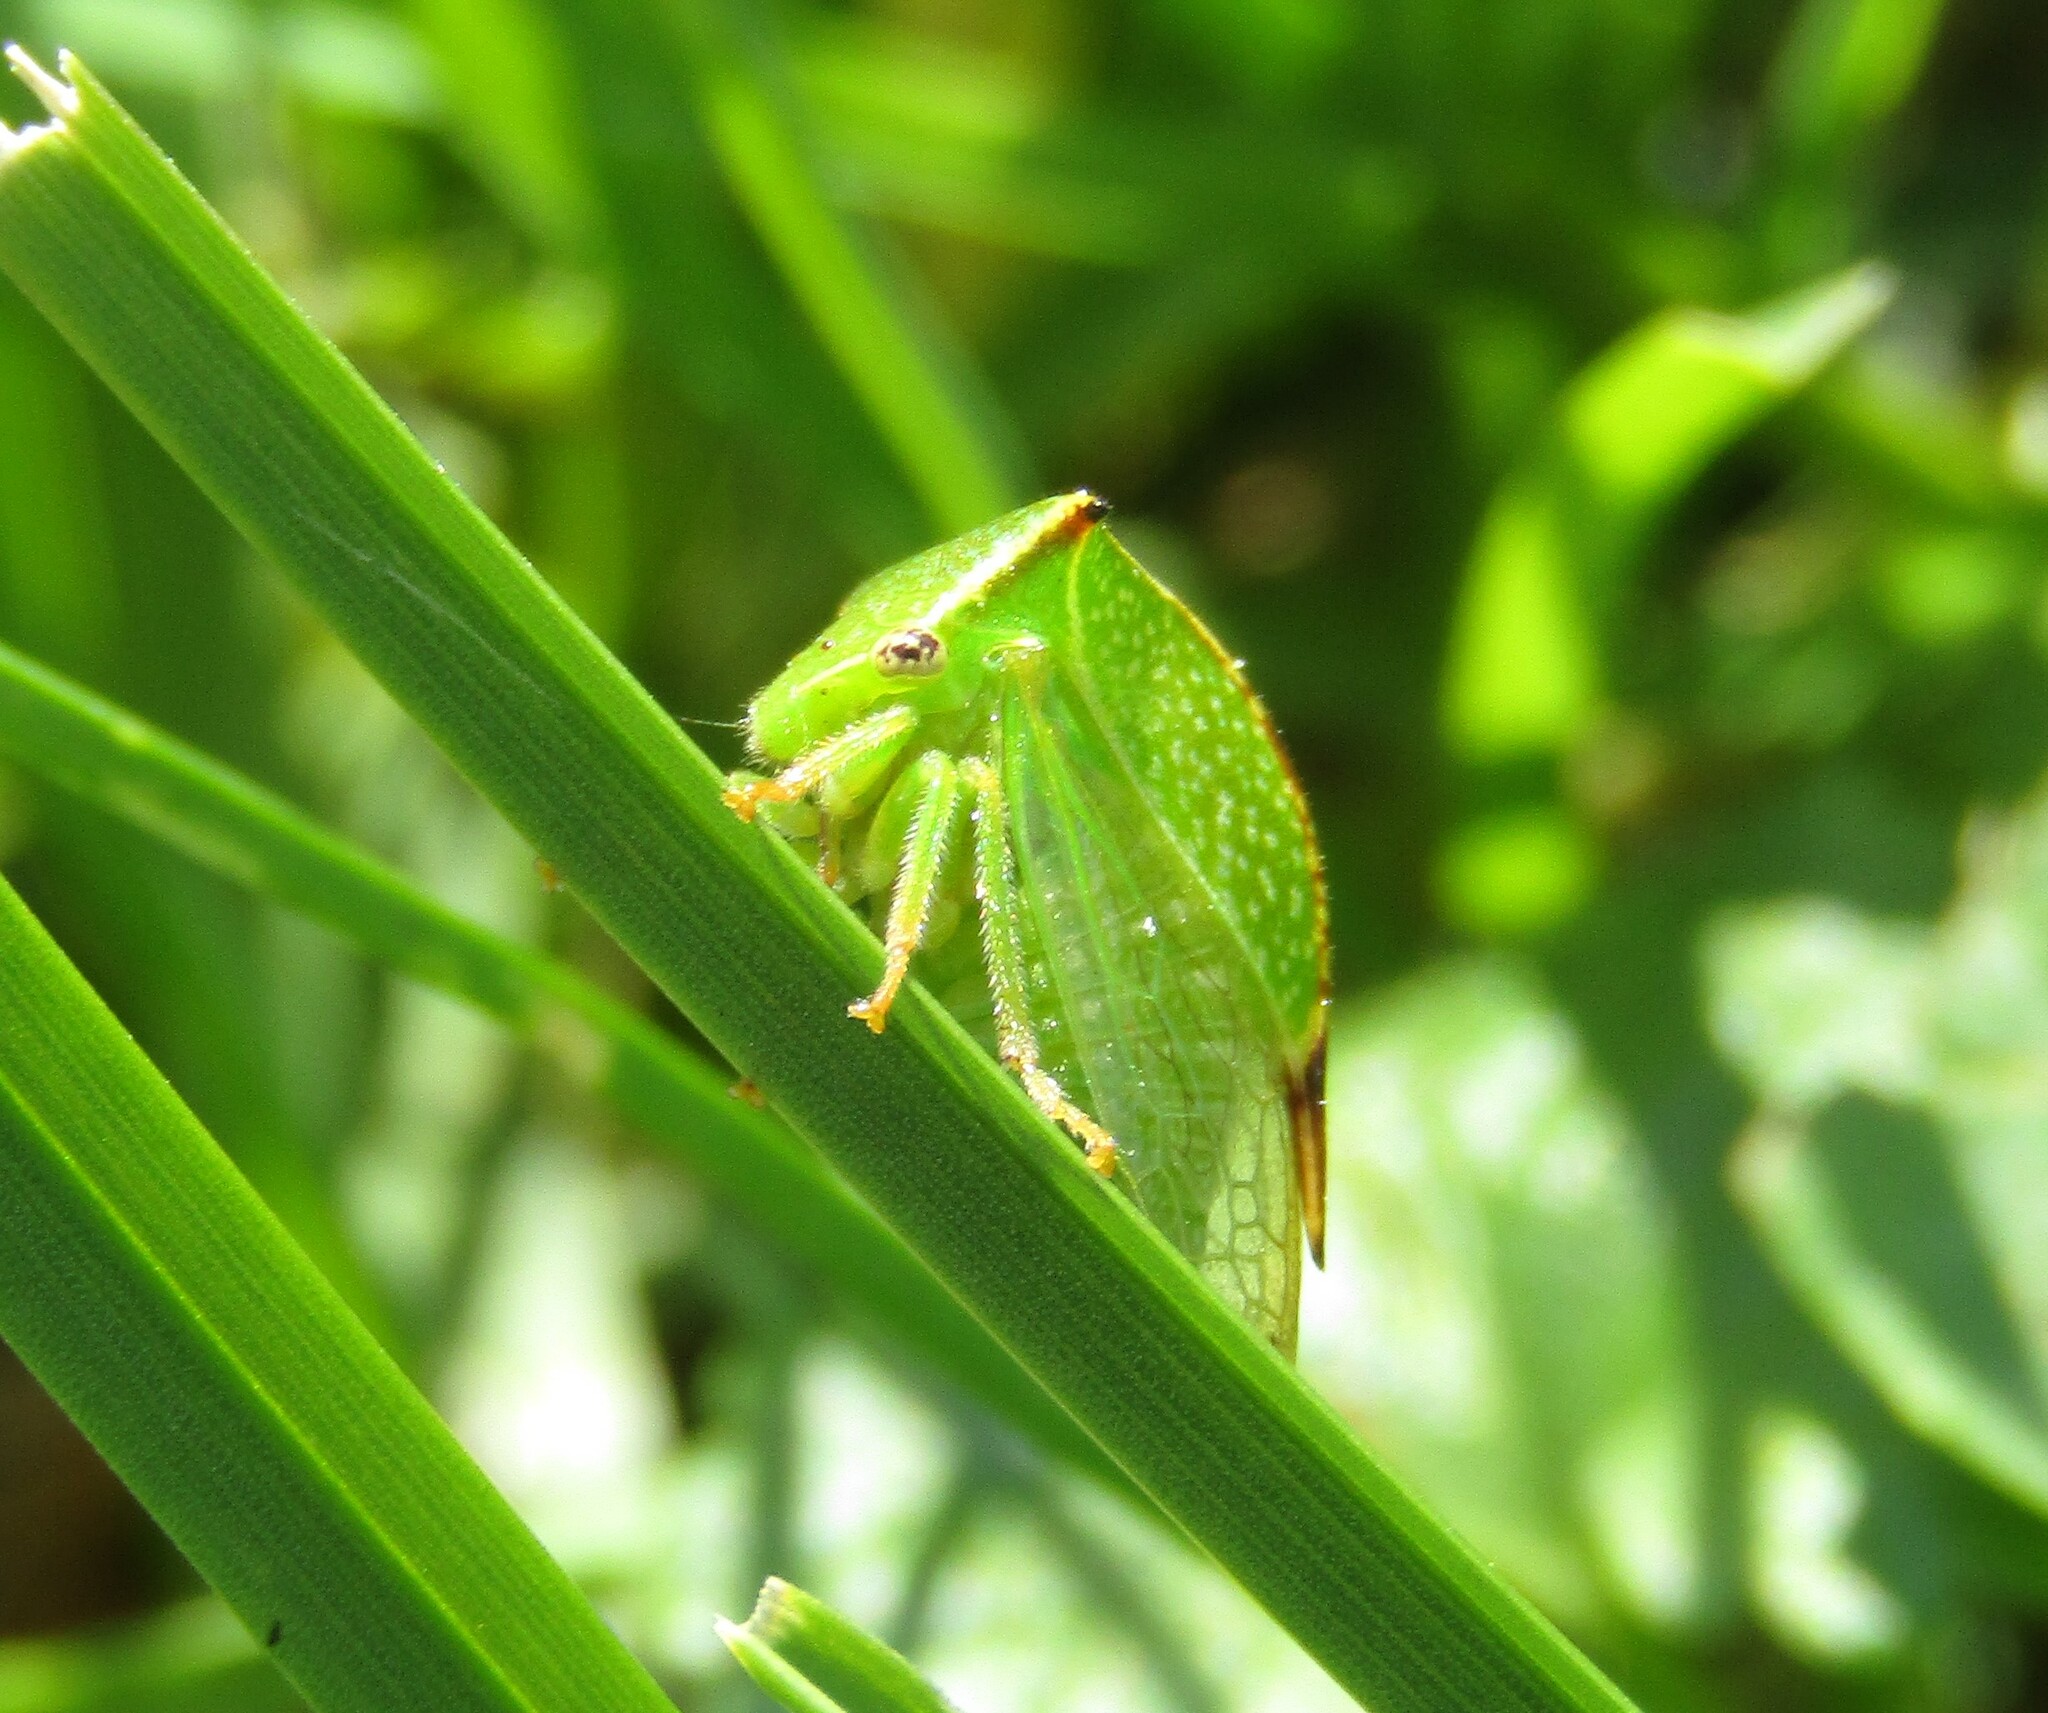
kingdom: Animalia
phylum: Arthropoda
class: Insecta
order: Hemiptera
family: Membracidae
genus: Stictocephala
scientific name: Stictocephala bisonia
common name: American buffalo treehopper
